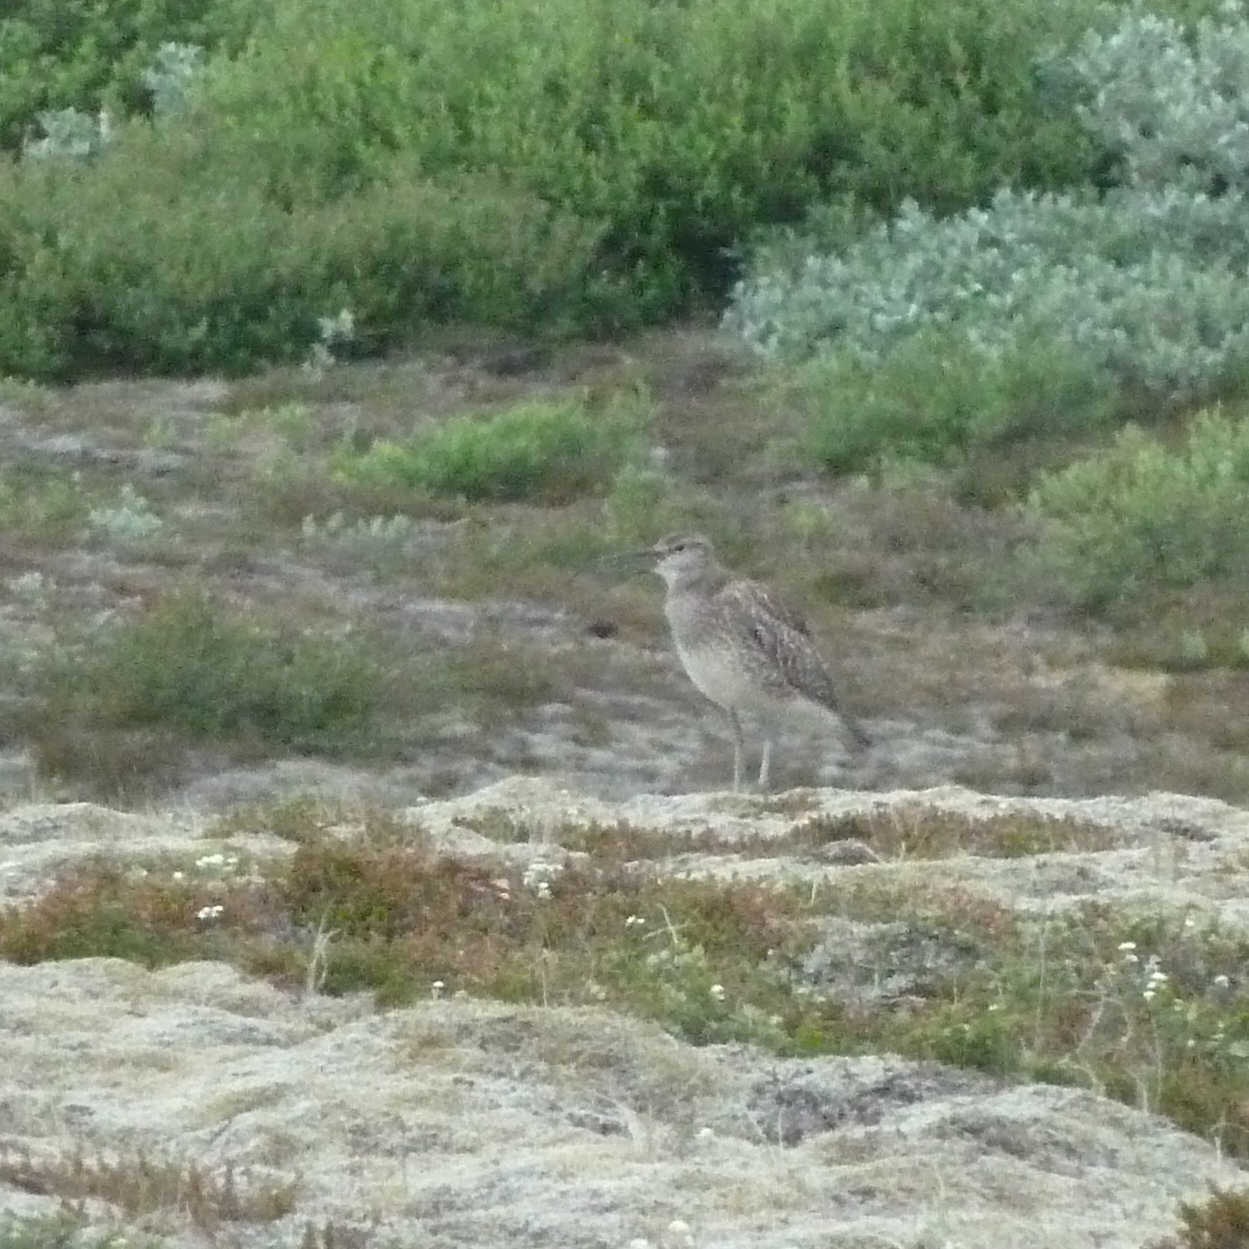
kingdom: Animalia
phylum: Chordata
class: Aves
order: Charadriiformes
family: Scolopacidae
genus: Numenius
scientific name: Numenius phaeopus
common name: Whimbrel
